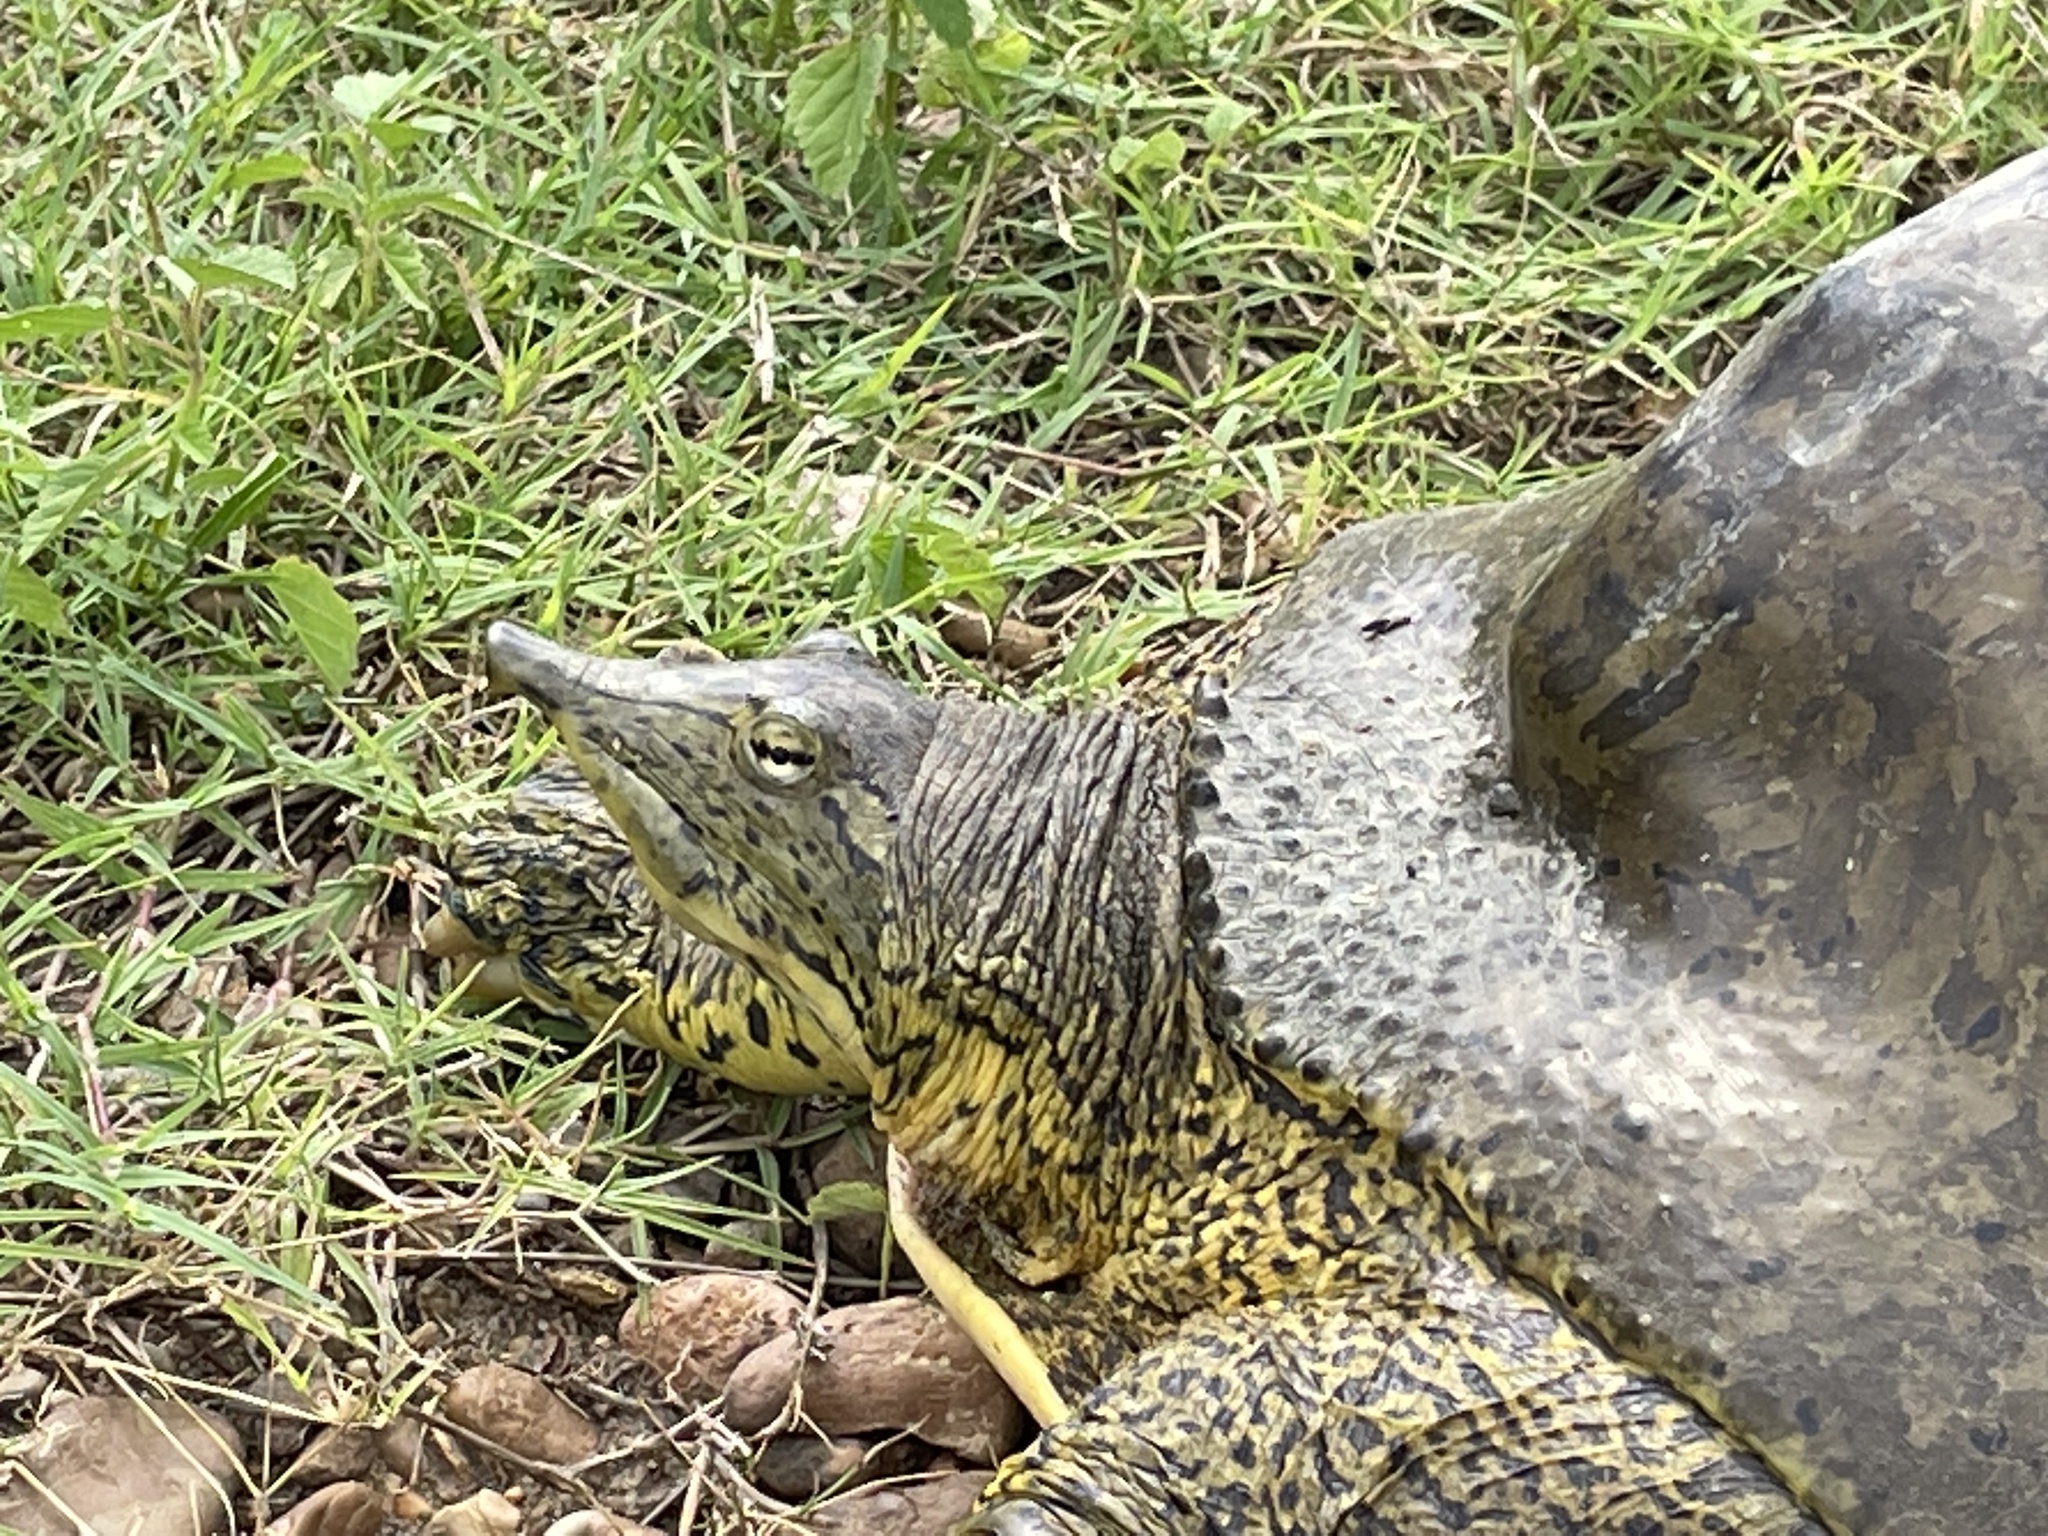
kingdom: Animalia
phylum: Chordata
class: Testudines
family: Trionychidae
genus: Apalone
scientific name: Apalone spinifera
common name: Spiny softshell turtle
